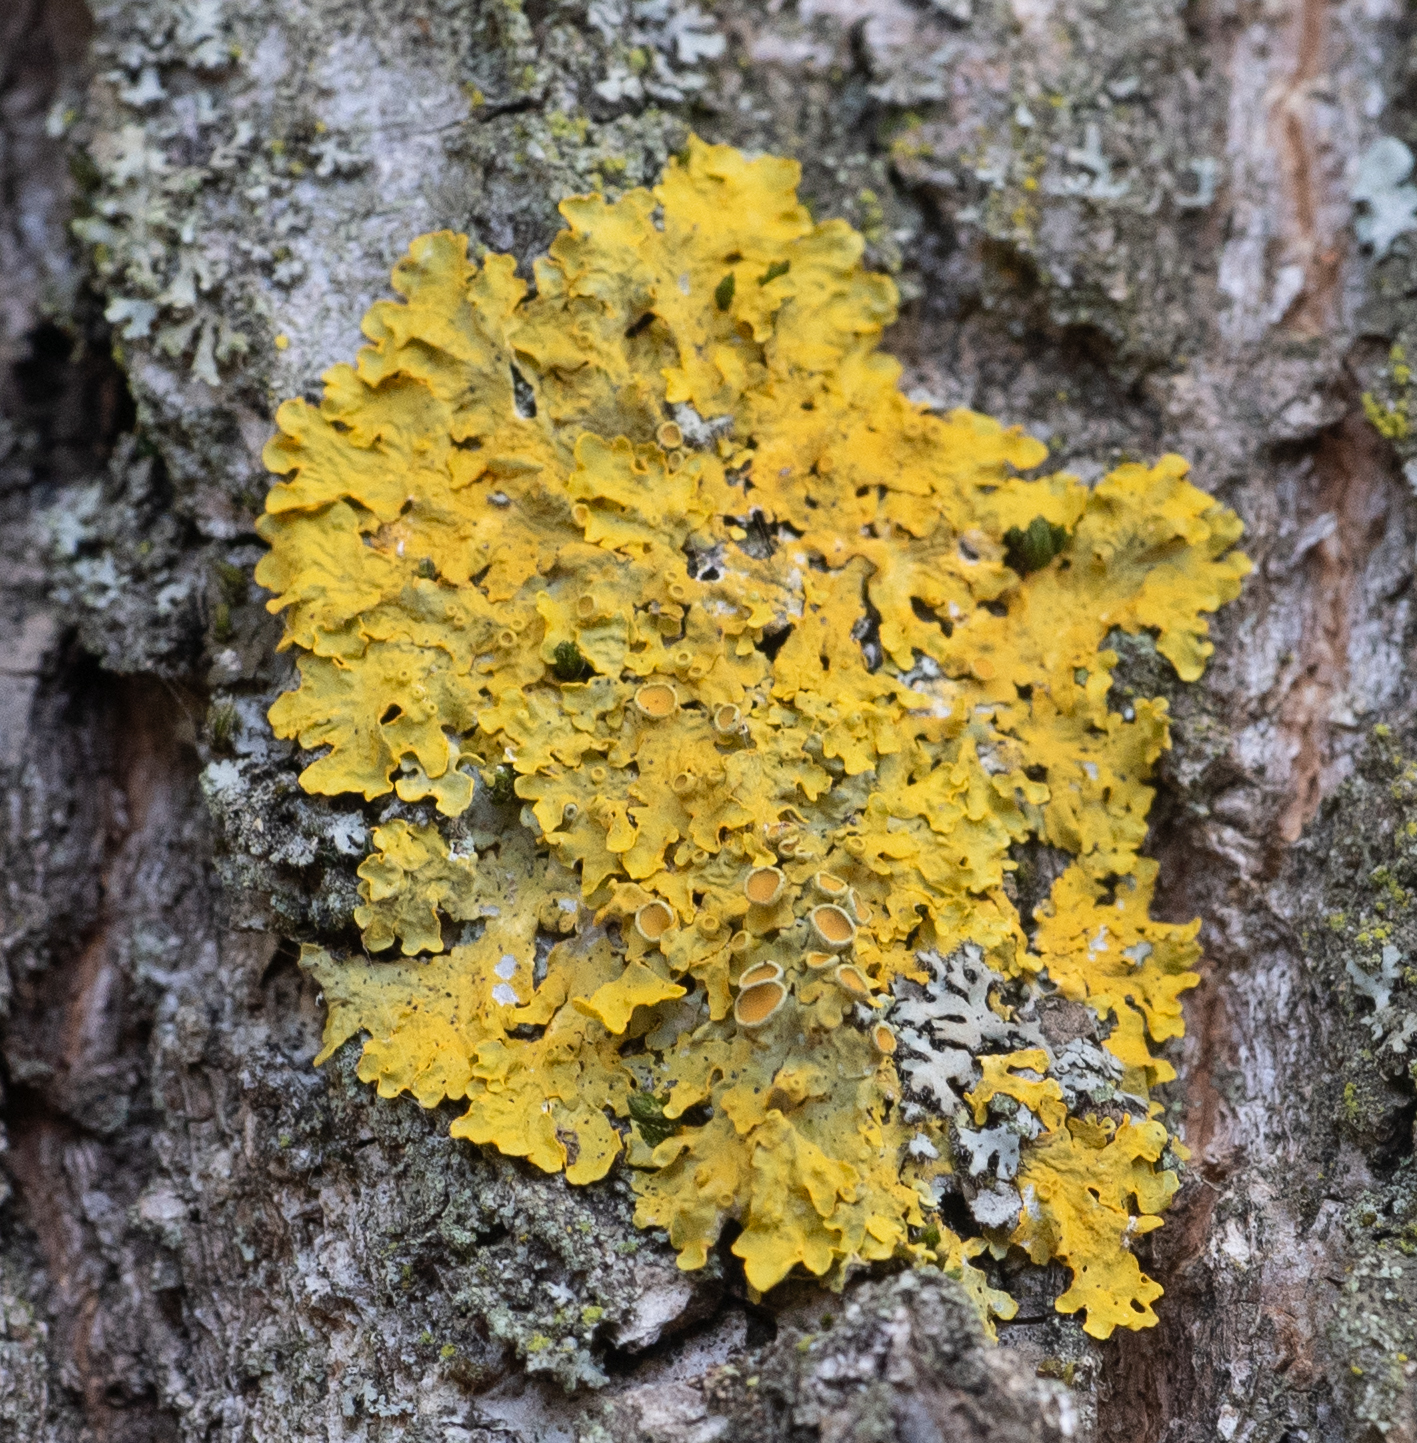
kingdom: Fungi
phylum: Ascomycota
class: Lecanoromycetes
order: Teloschistales
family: Teloschistaceae
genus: Xanthoria
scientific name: Xanthoria parietina
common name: Common orange lichen
